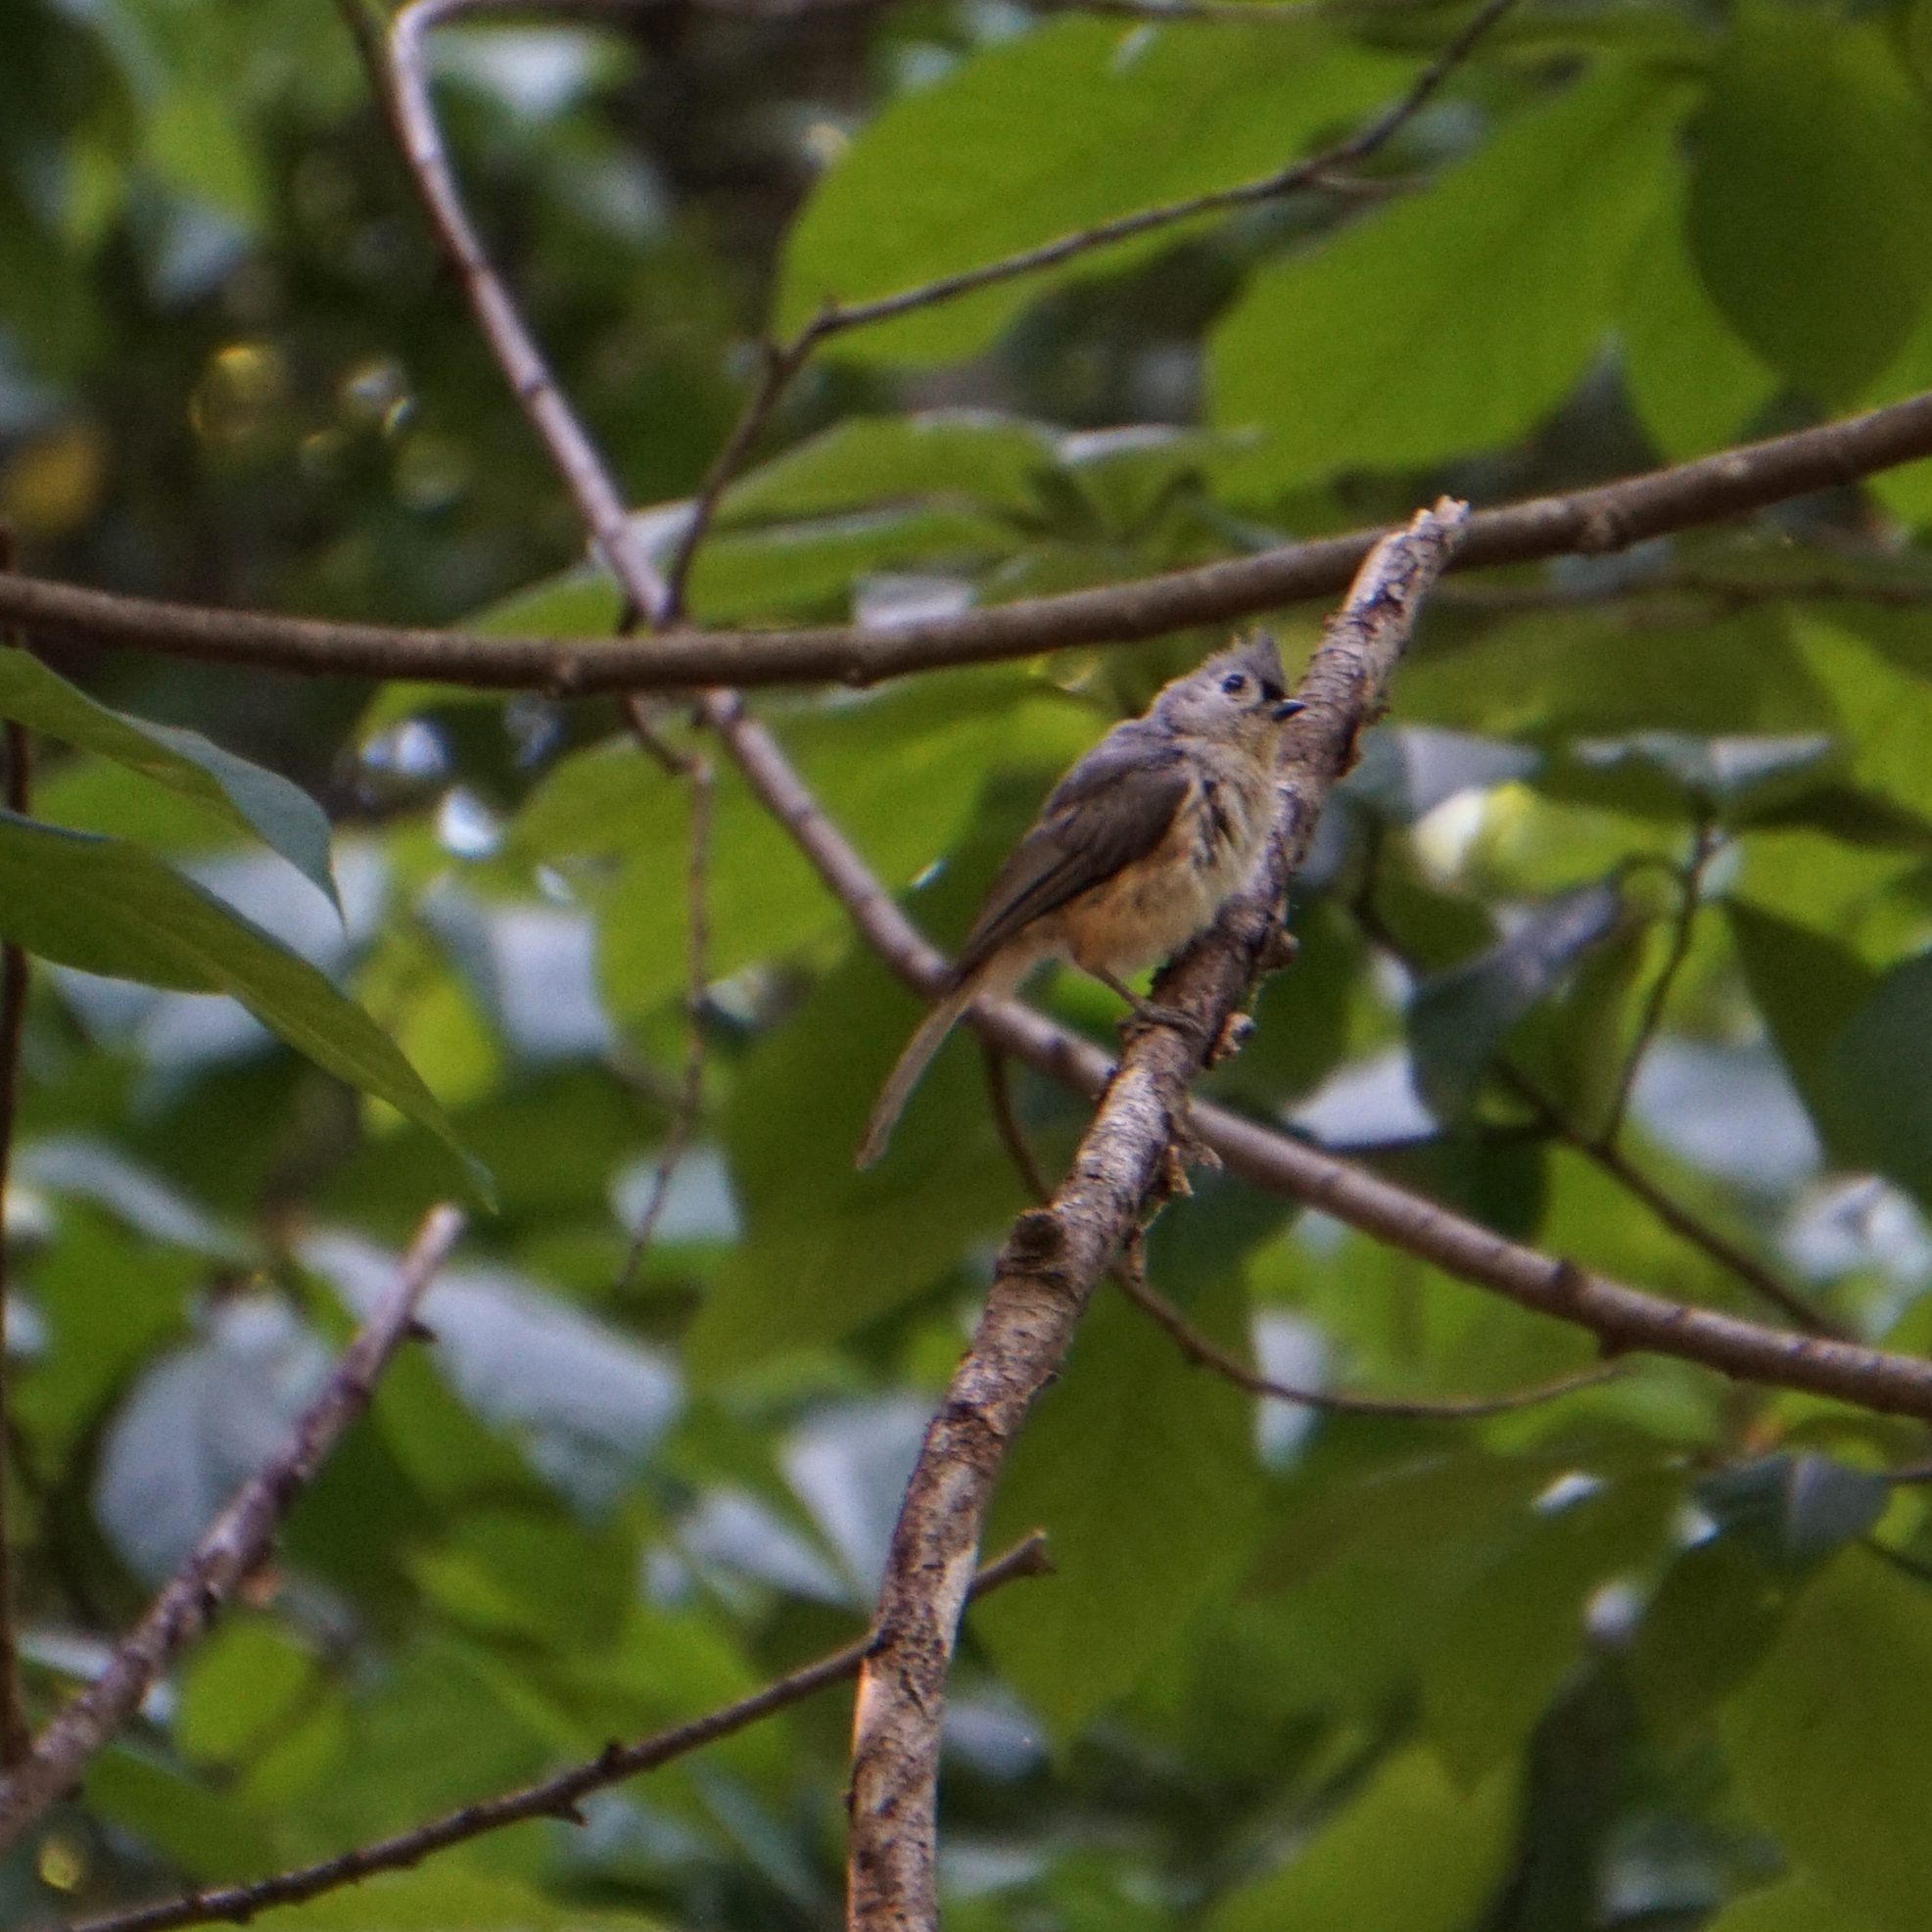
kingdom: Animalia
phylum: Chordata
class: Aves
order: Passeriformes
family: Paridae
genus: Baeolophus
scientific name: Baeolophus bicolor
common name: Tufted titmouse
